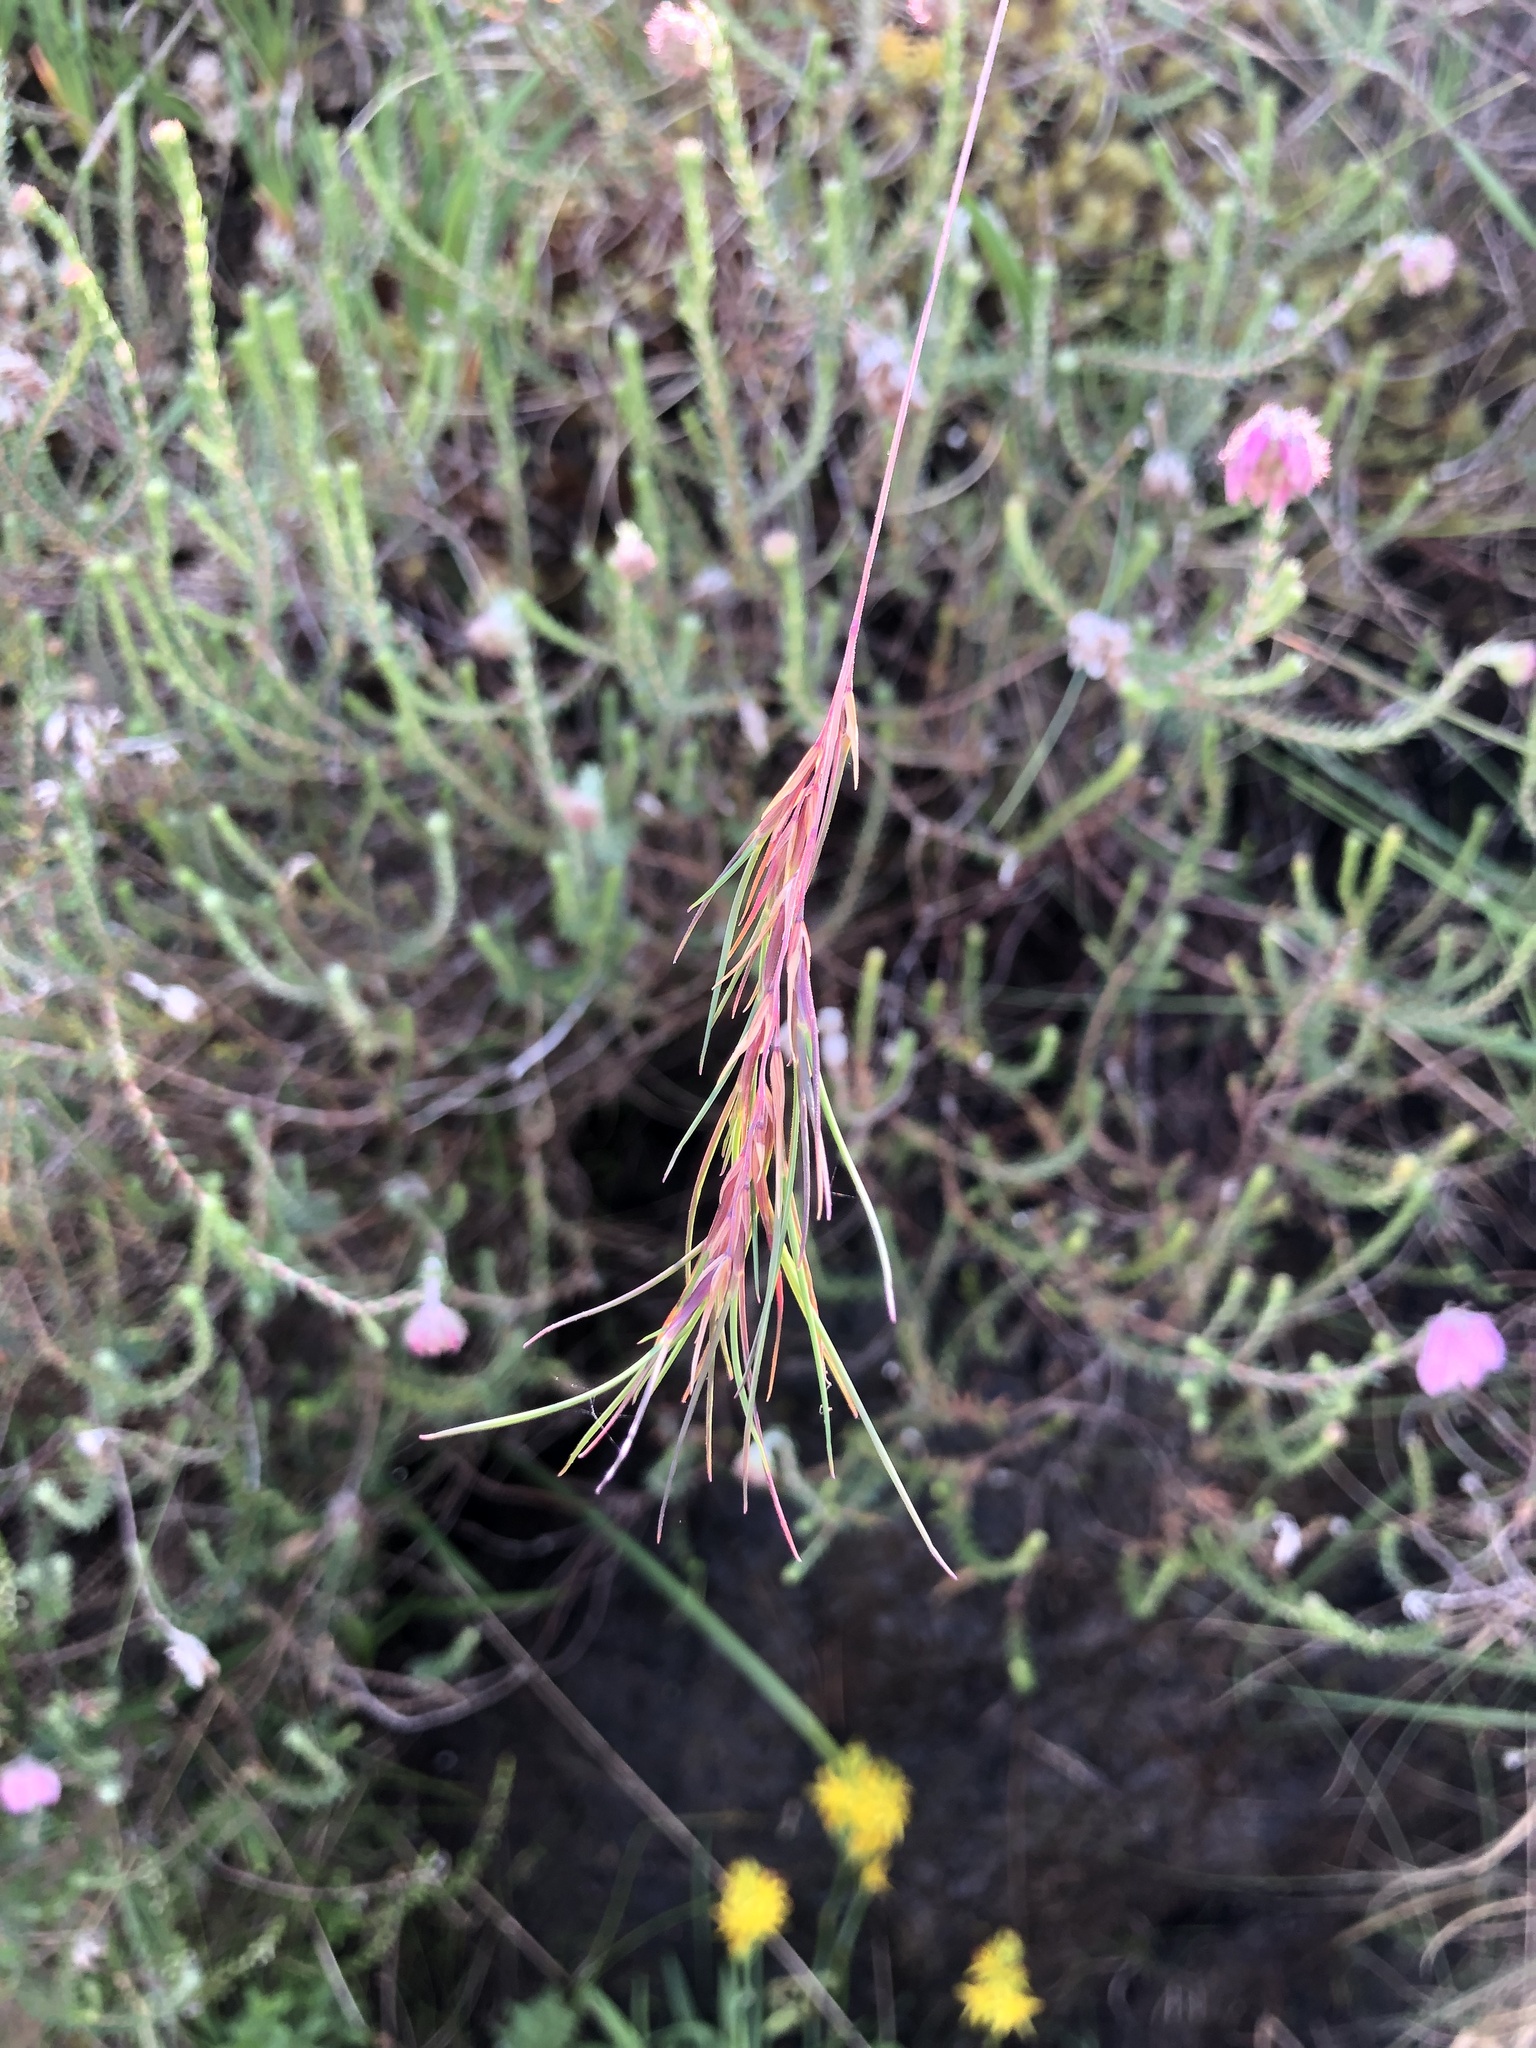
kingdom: Plantae
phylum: Tracheophyta
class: Magnoliopsida
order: Ericales
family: Ericaceae
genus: Erica
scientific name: Erica tetralix
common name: Cross-leaved heath
